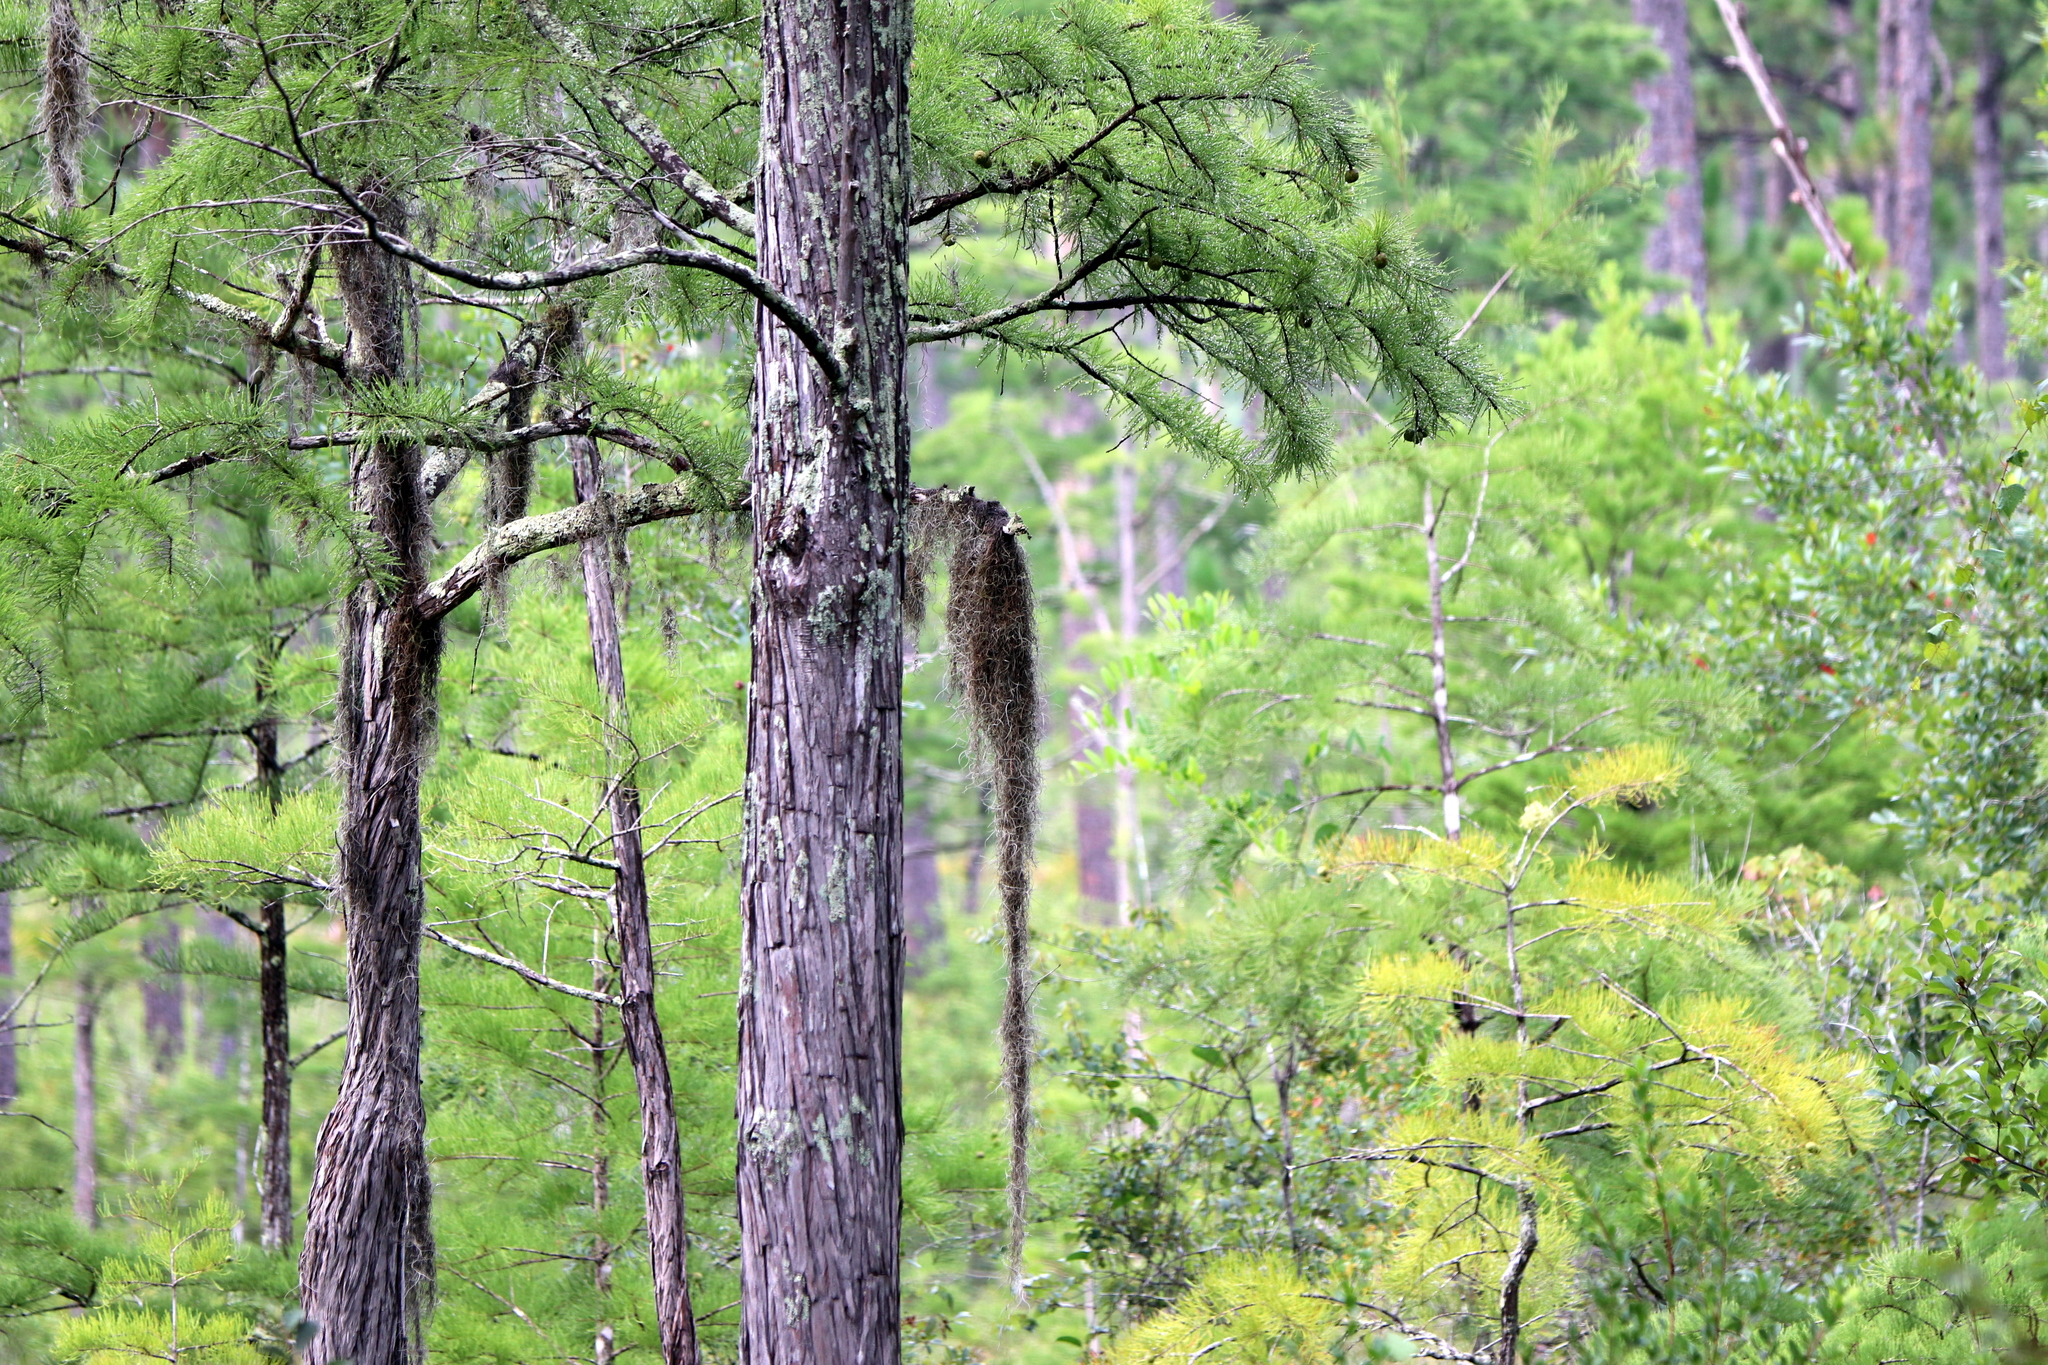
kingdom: Plantae
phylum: Tracheophyta
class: Liliopsida
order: Poales
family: Bromeliaceae
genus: Tillandsia
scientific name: Tillandsia usneoides
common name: Spanish moss
